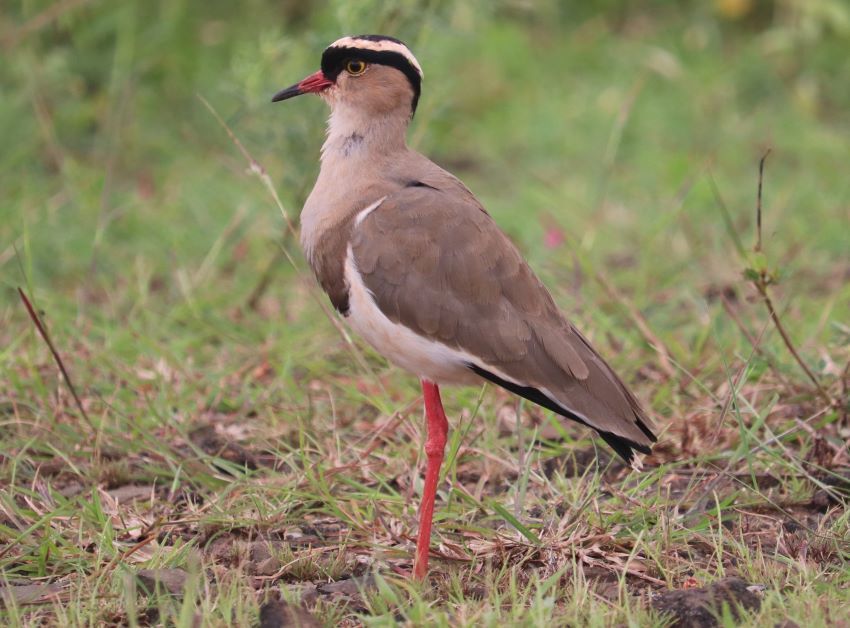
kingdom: Animalia
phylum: Chordata
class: Aves
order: Charadriiformes
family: Charadriidae
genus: Vanellus
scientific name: Vanellus coronatus
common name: Crowned lapwing
